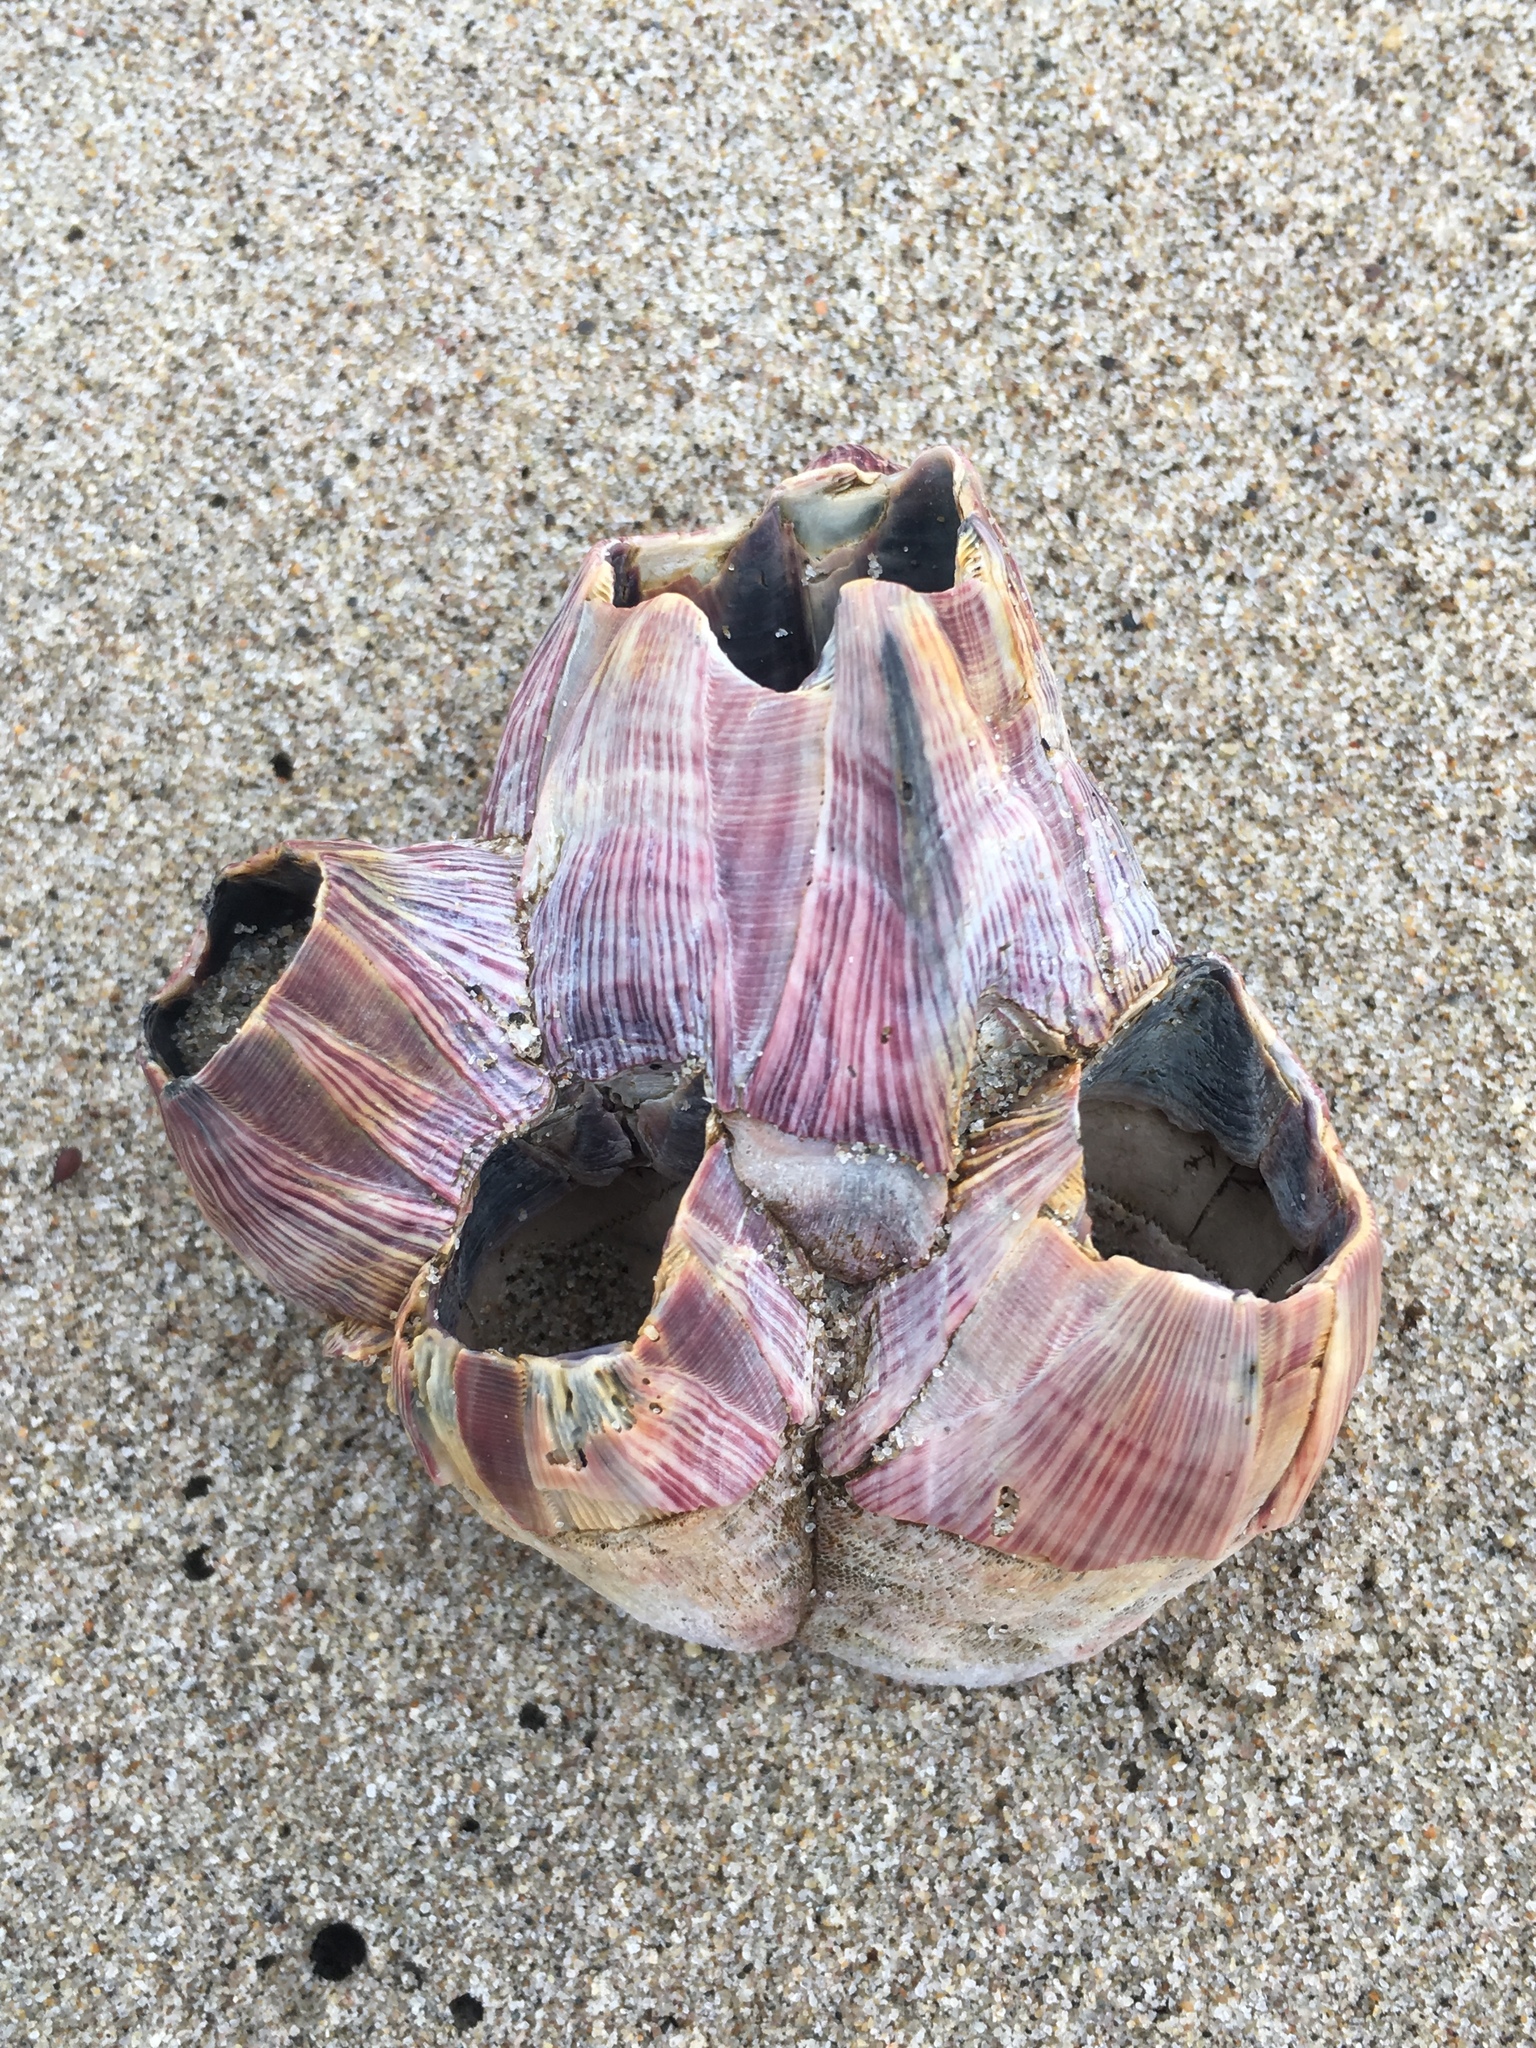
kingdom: Animalia
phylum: Arthropoda
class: Maxillopoda
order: Sessilia
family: Balanidae
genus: Megabalanus
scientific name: Megabalanus californicus
